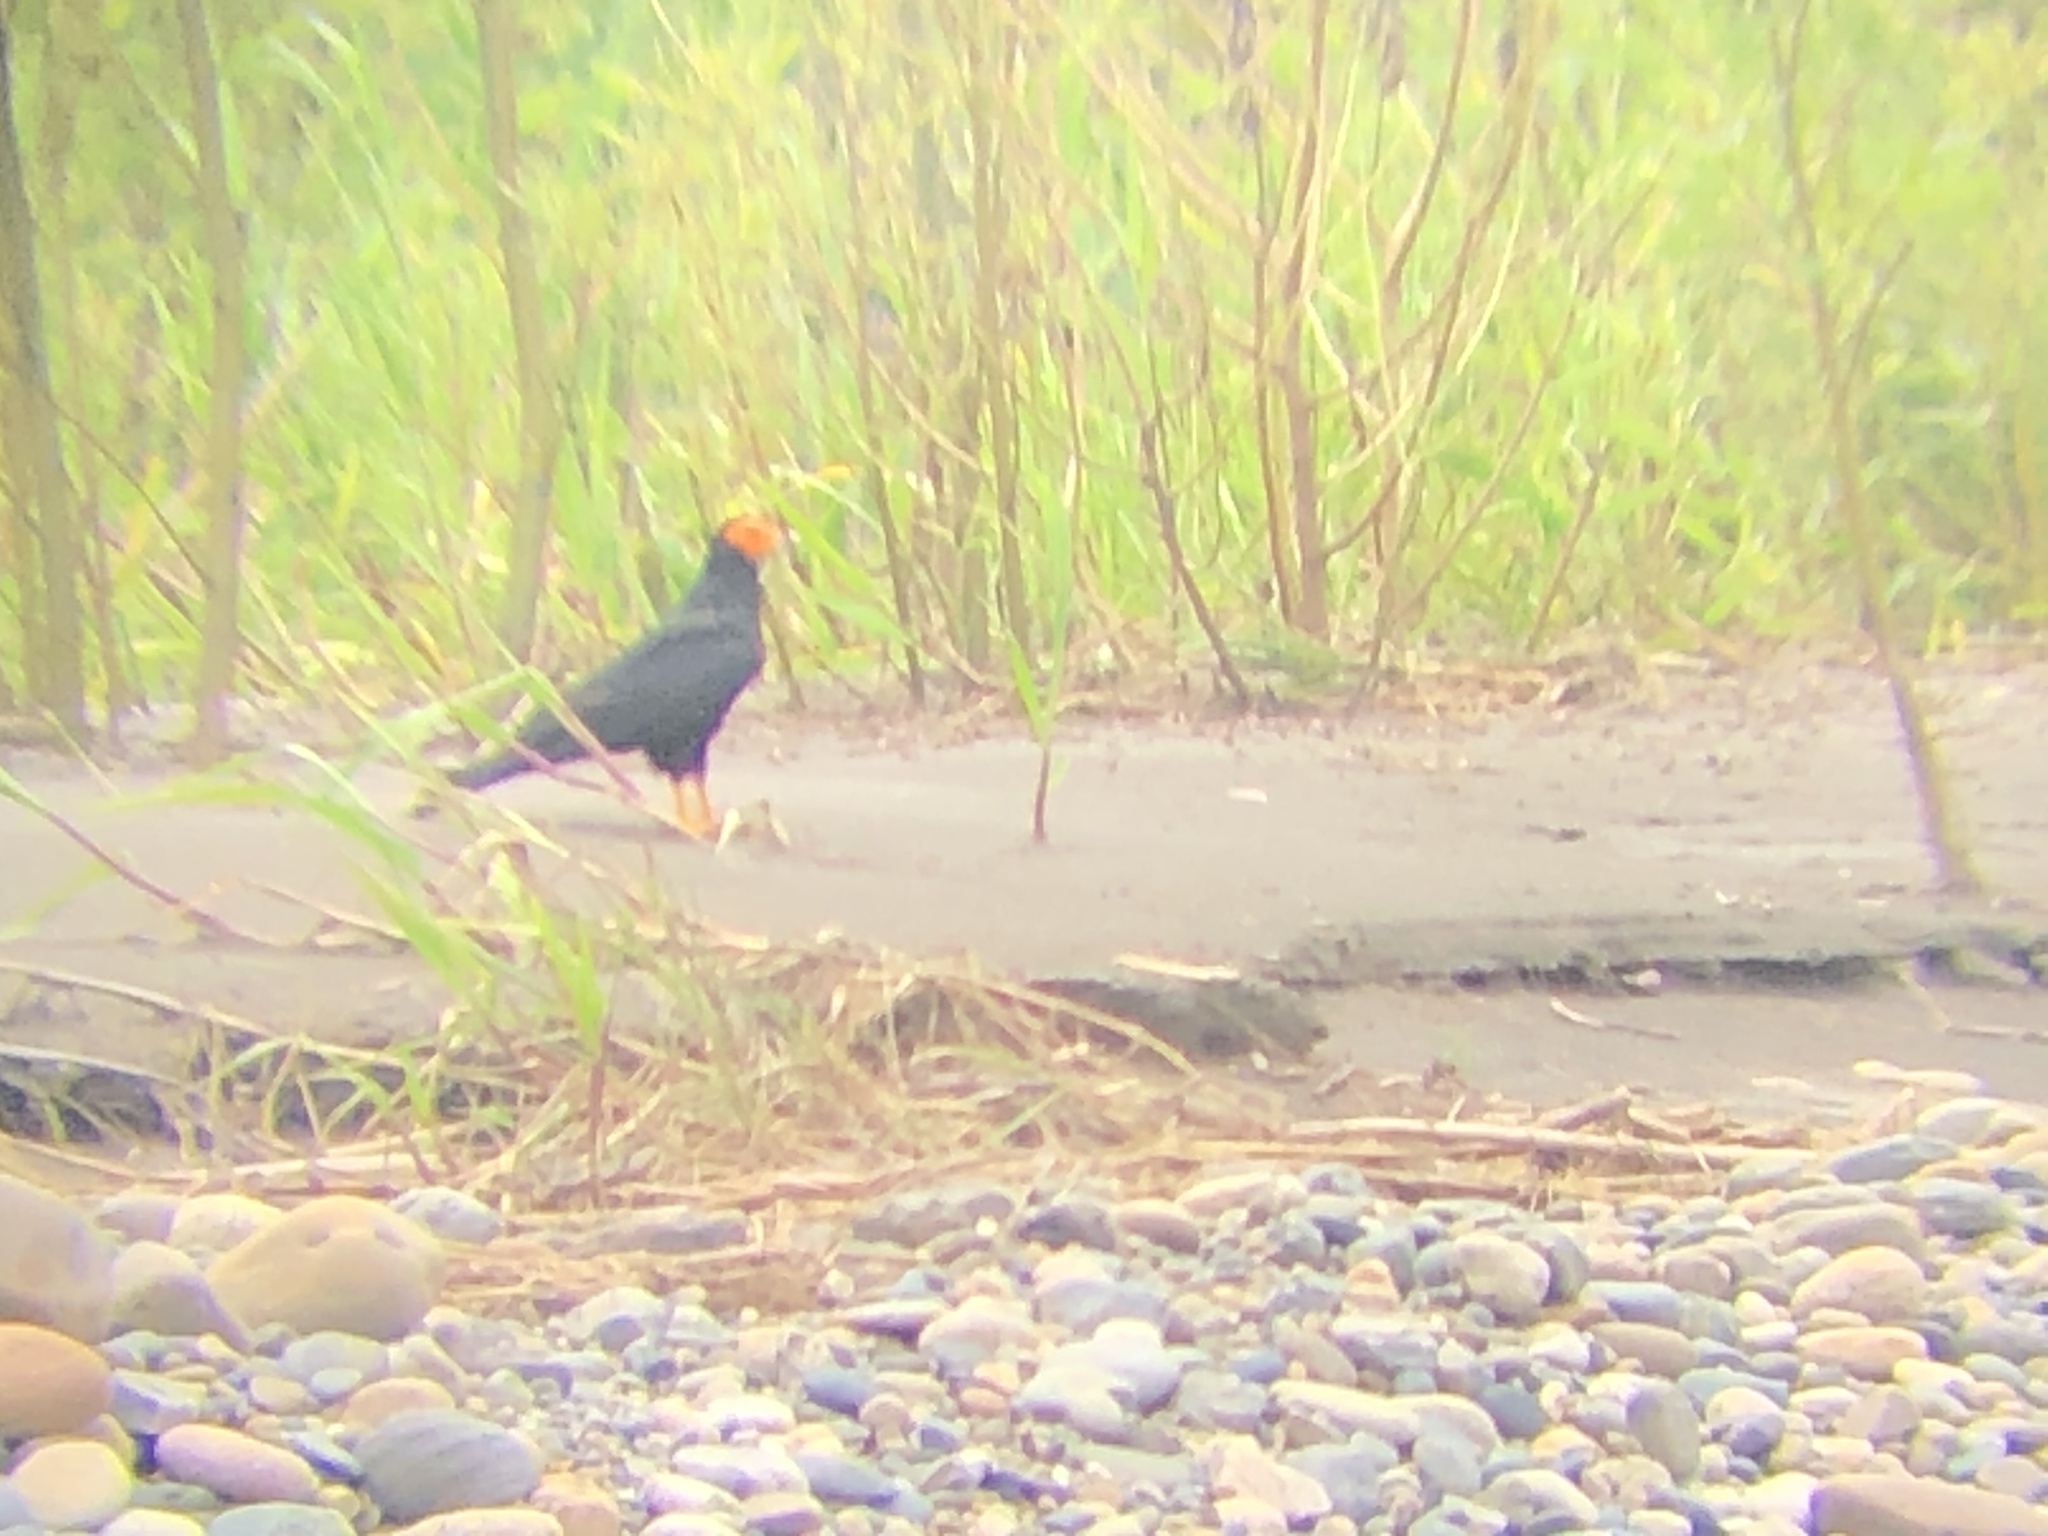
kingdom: Animalia
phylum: Chordata
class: Aves
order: Falconiformes
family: Falconidae
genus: Daptrius
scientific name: Daptrius ater
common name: Black caracara
